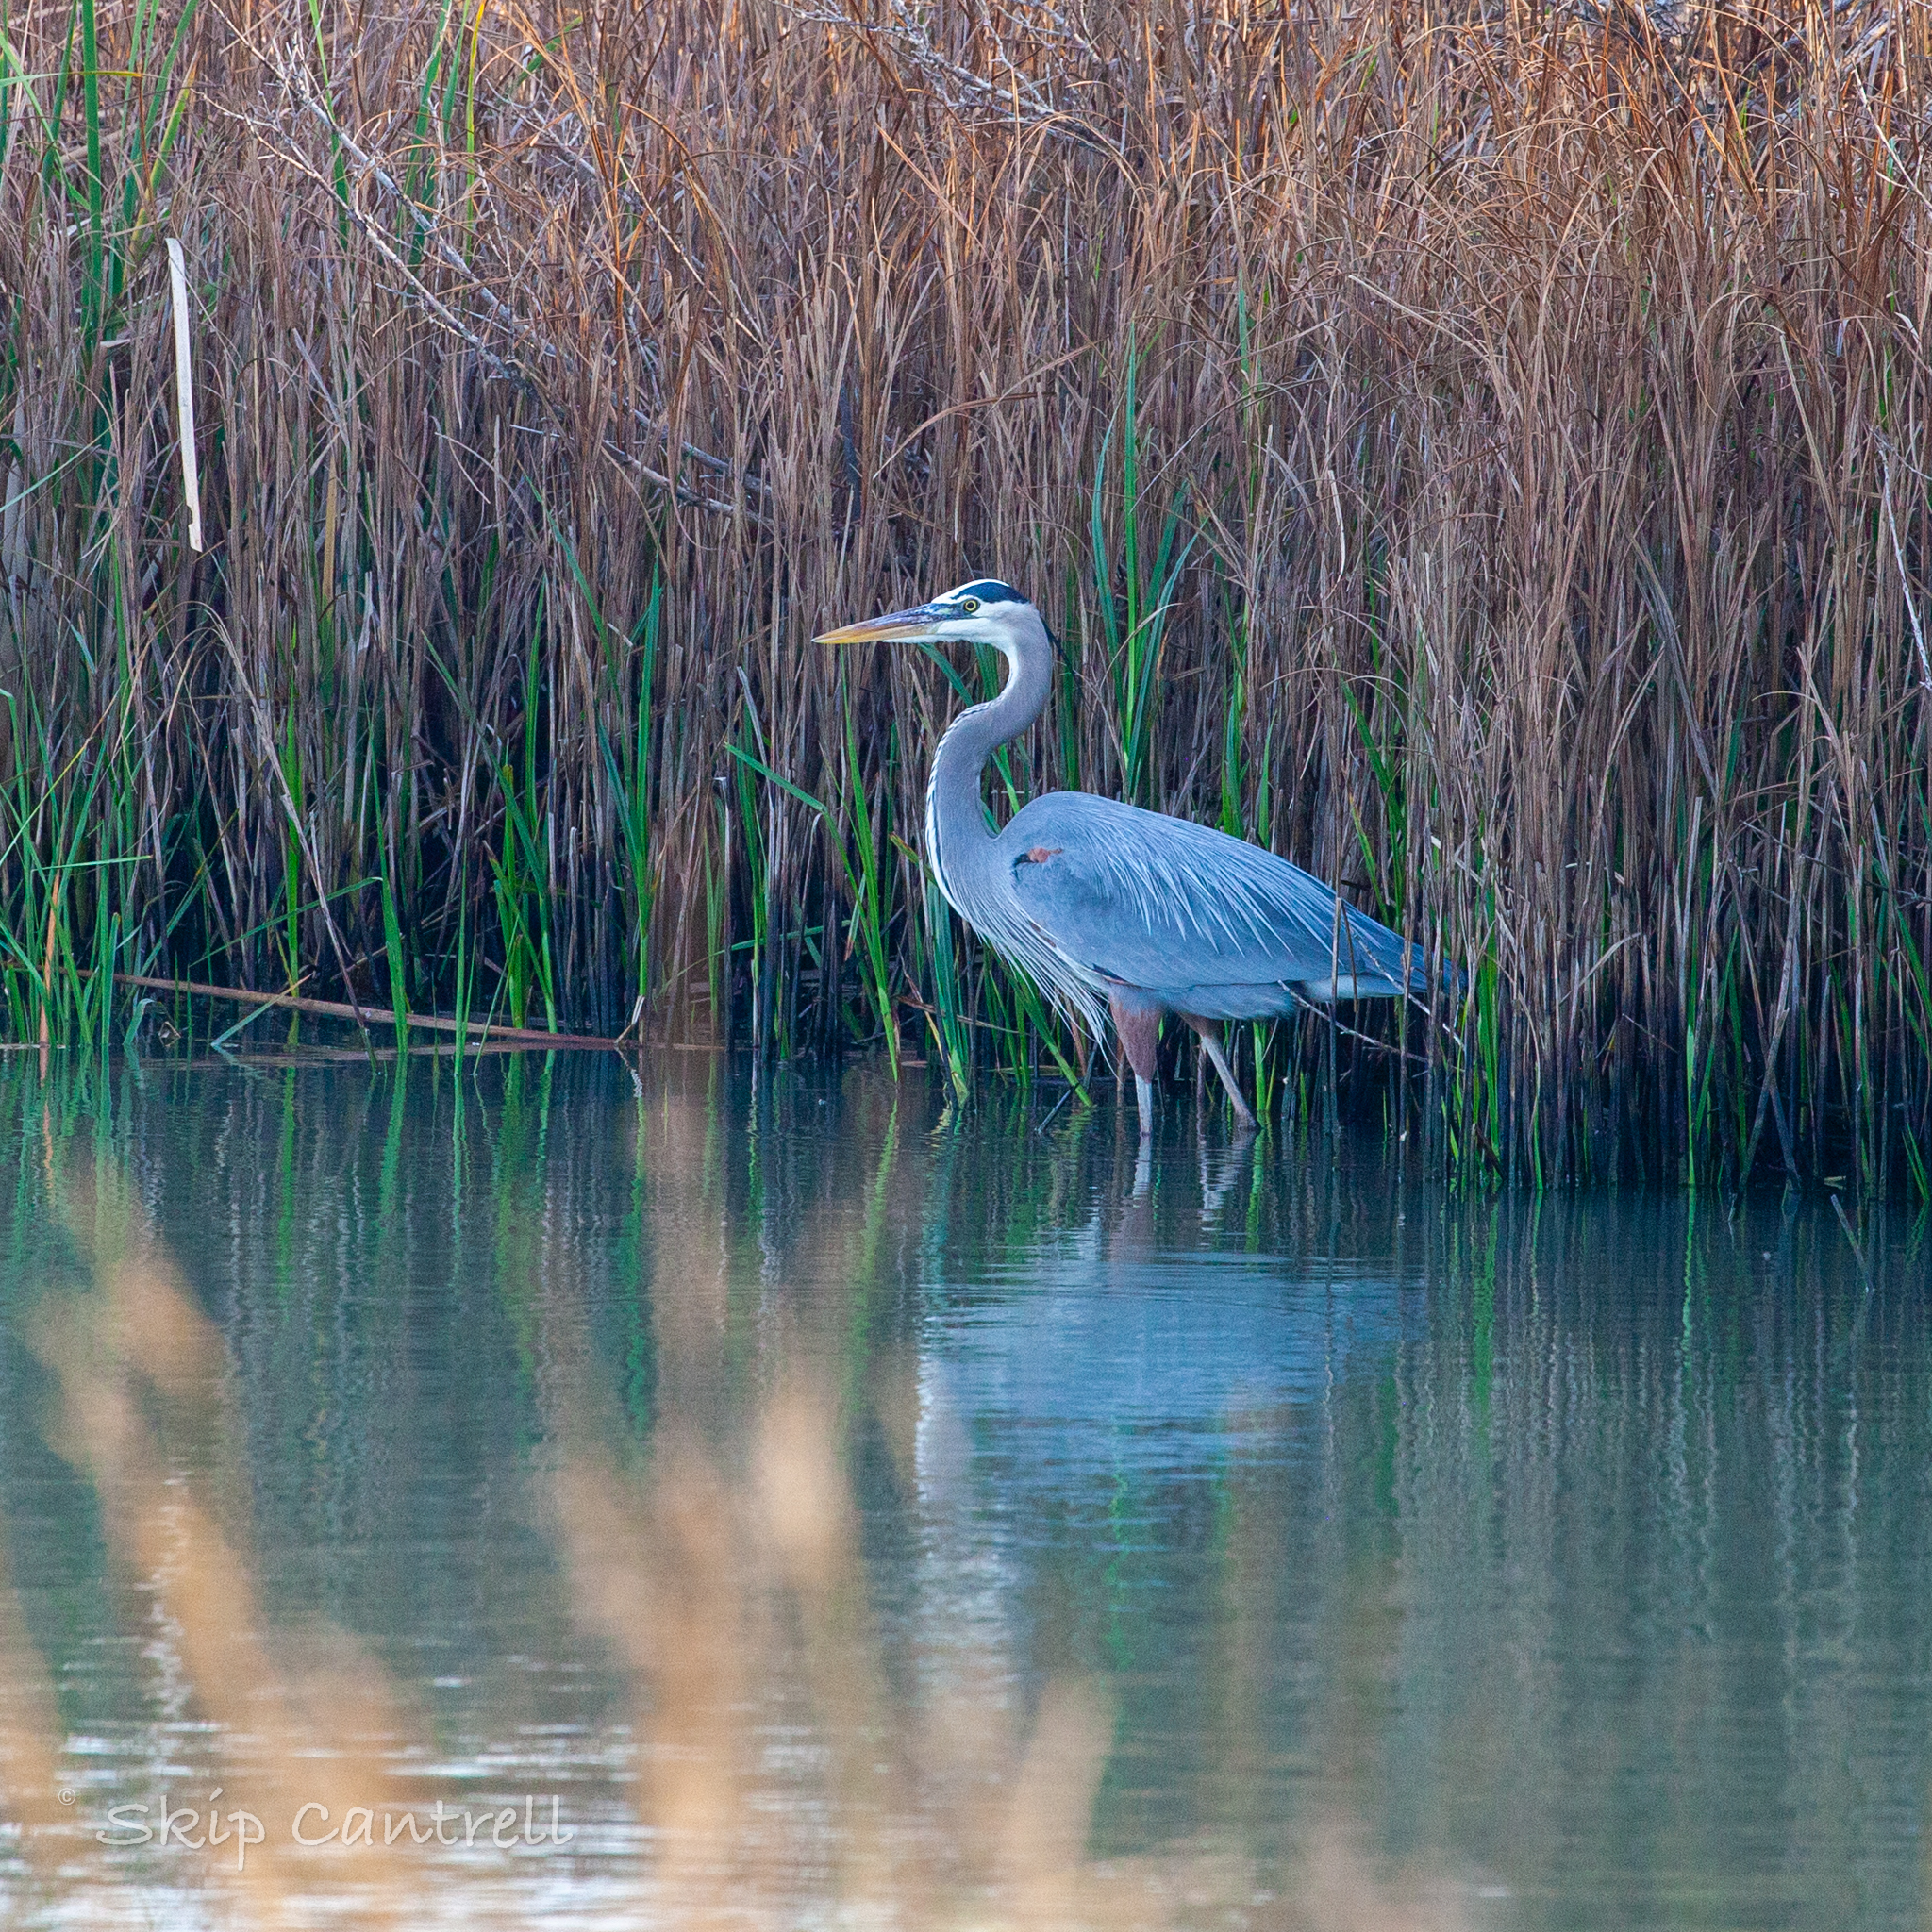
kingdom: Animalia
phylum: Chordata
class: Aves
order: Pelecaniformes
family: Ardeidae
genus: Ardea
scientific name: Ardea herodias
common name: Great blue heron
